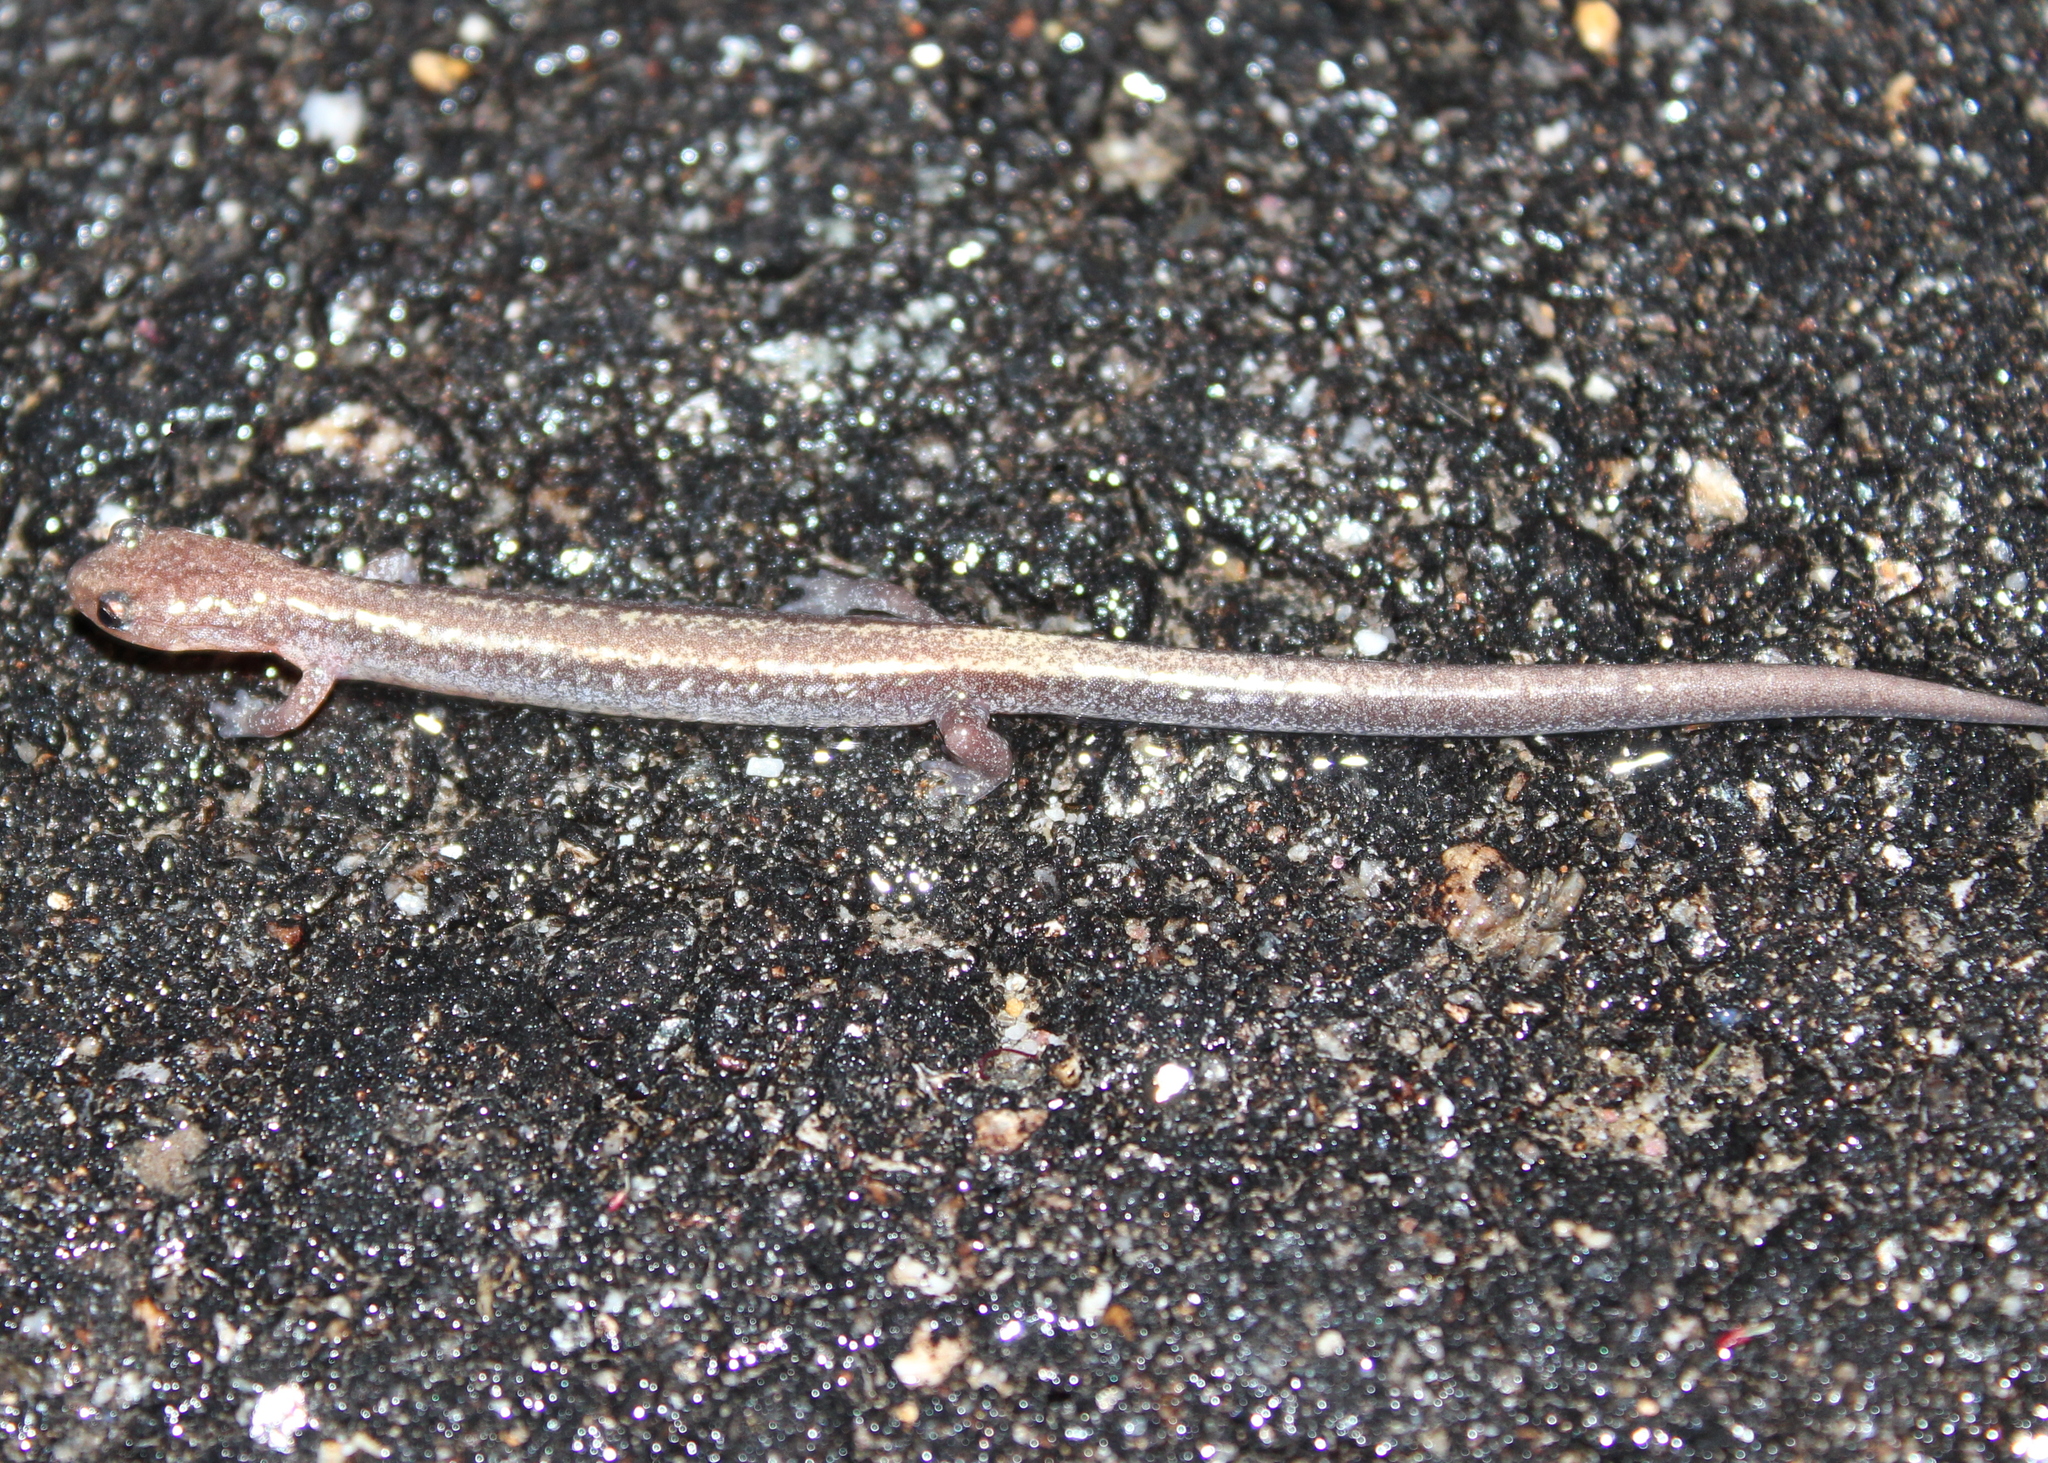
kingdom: Animalia
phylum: Chordata
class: Amphibia
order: Caudata
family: Plethodontidae
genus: Plethodon
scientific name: Plethodon cinereus
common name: Redback salamander
